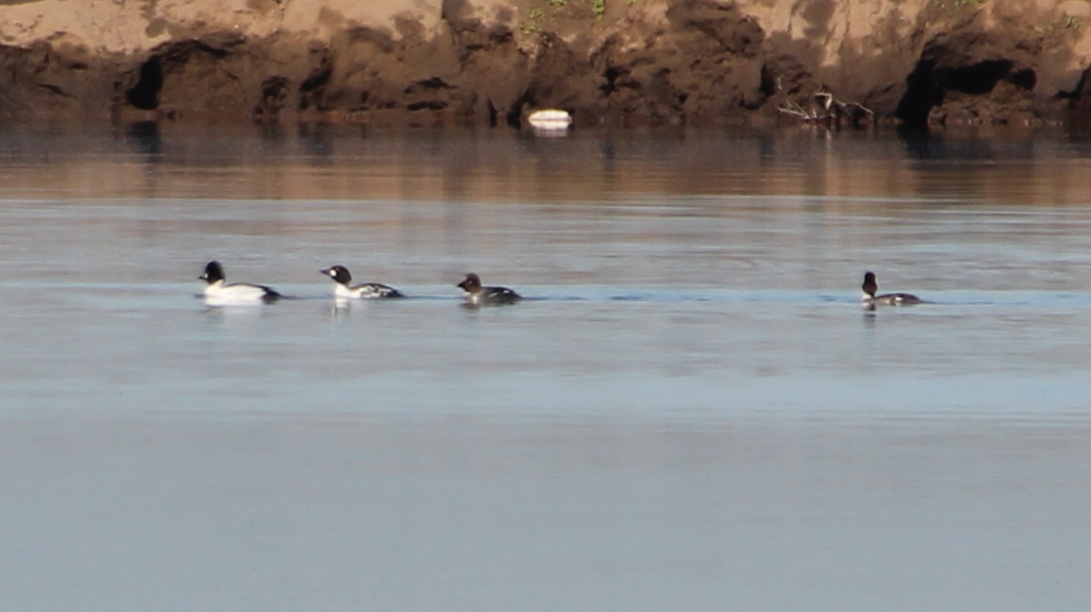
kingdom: Animalia
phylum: Chordata
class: Aves
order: Anseriformes
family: Anatidae
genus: Bucephala
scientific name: Bucephala clangula
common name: Common goldeneye
